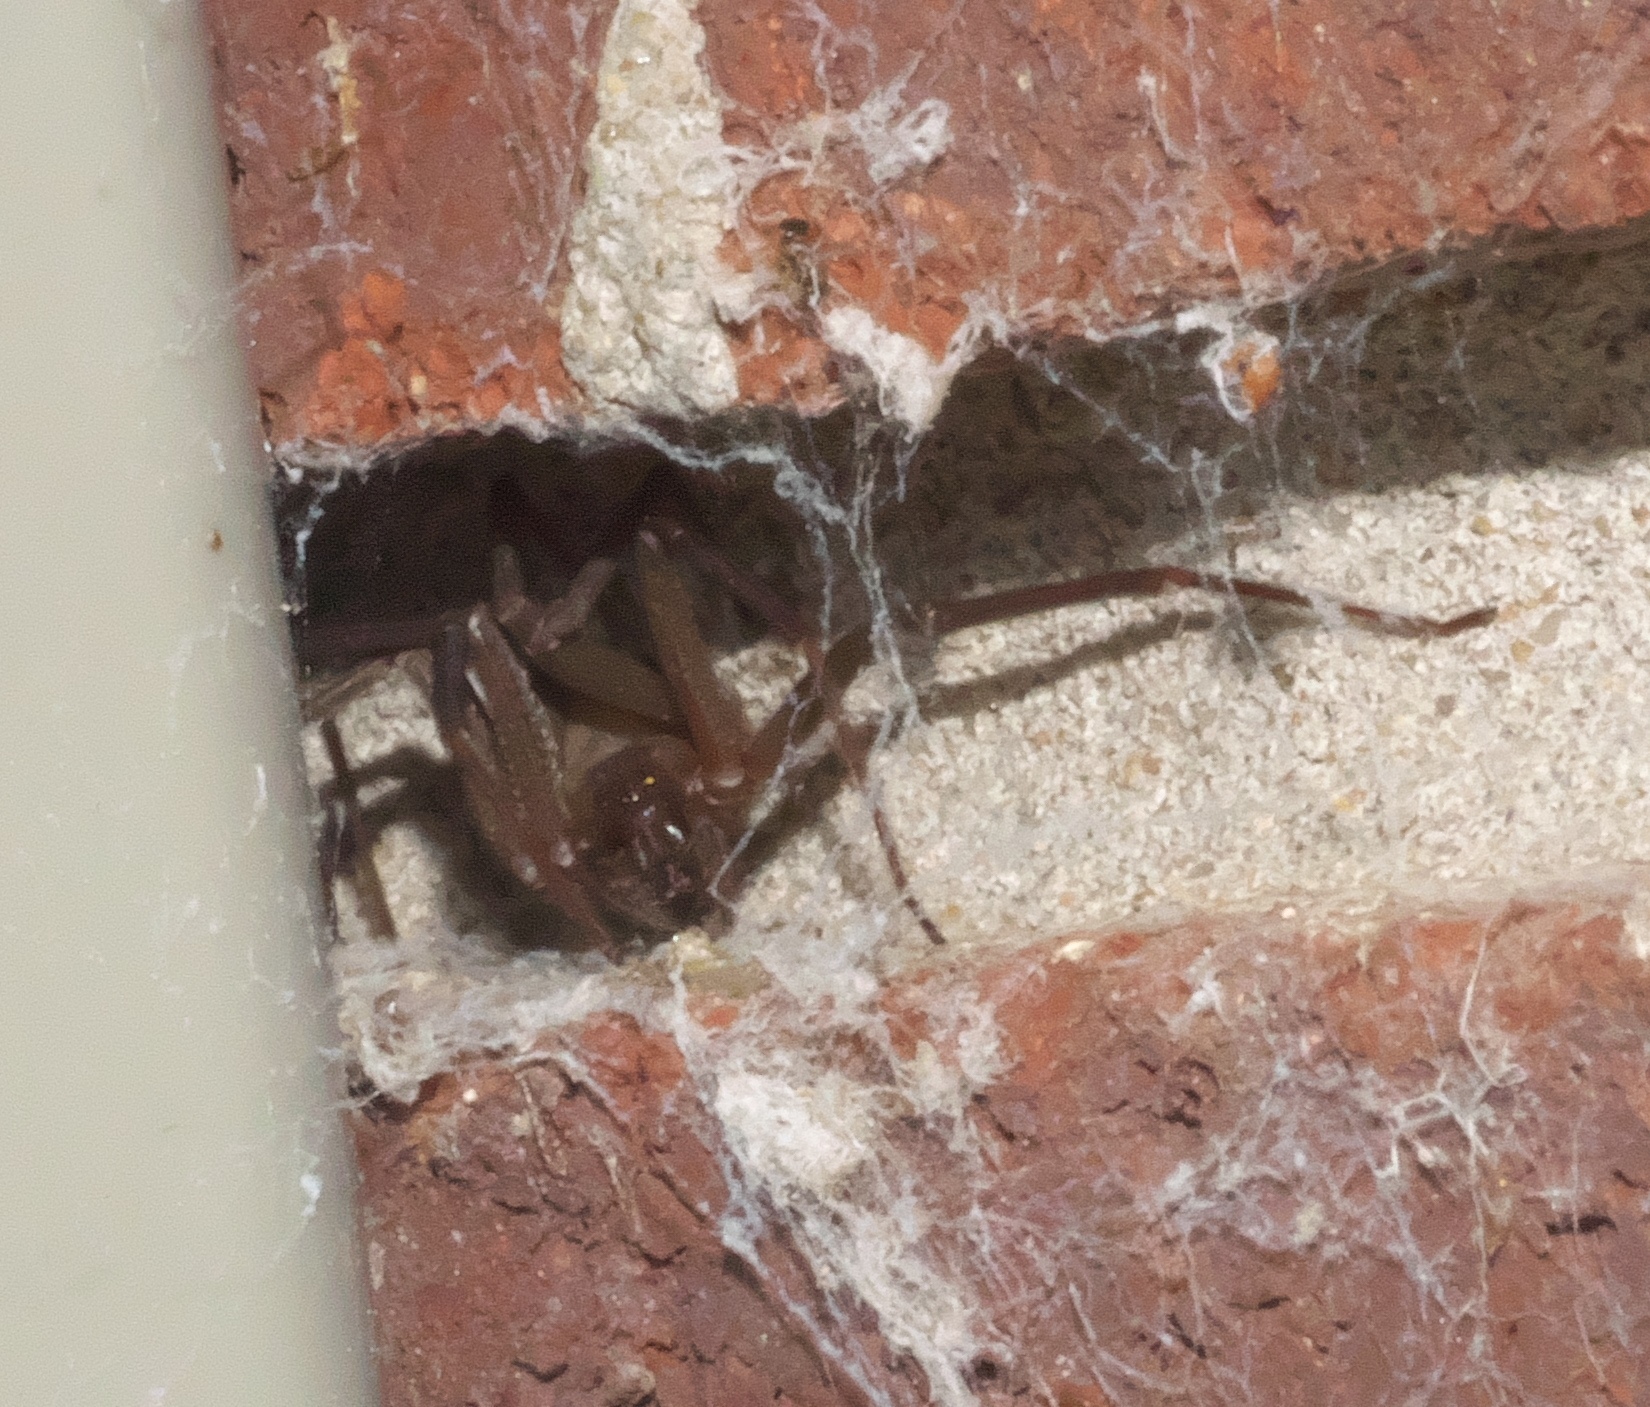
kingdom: Animalia
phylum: Arthropoda
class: Arachnida
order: Araneae
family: Sicariidae
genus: Loxosceles
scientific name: Loxosceles reclusa
